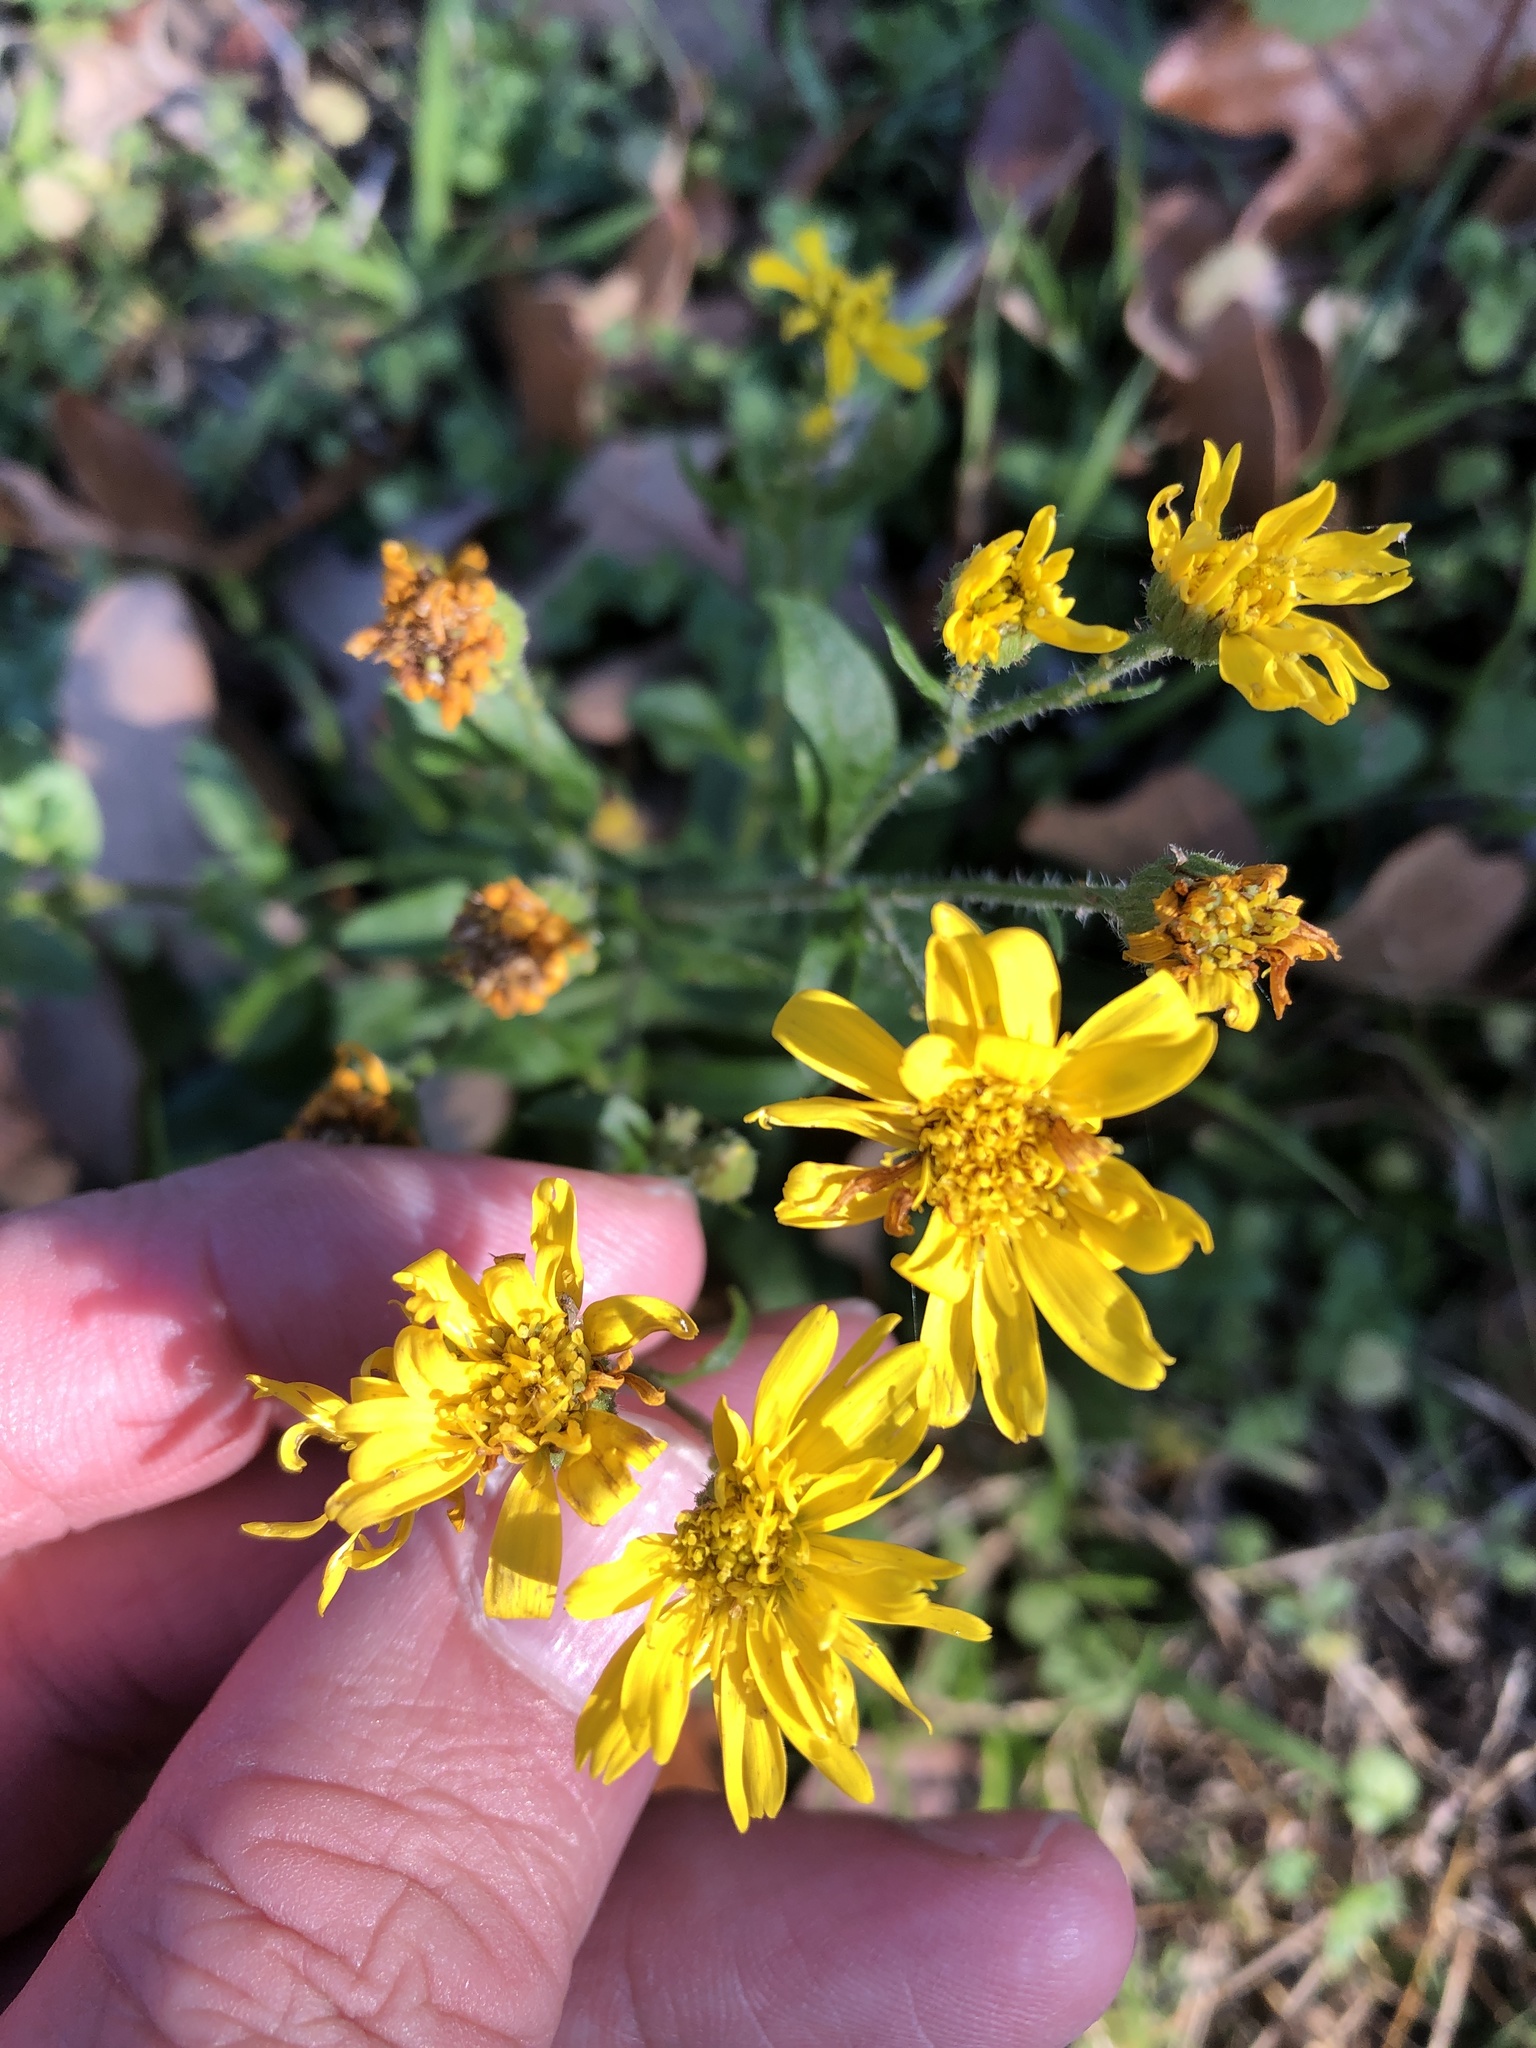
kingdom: Plantae
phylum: Tracheophyta
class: Magnoliopsida
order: Asterales
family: Asteraceae
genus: Heterotheca
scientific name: Heterotheca subaxillaris
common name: Camphorweed
